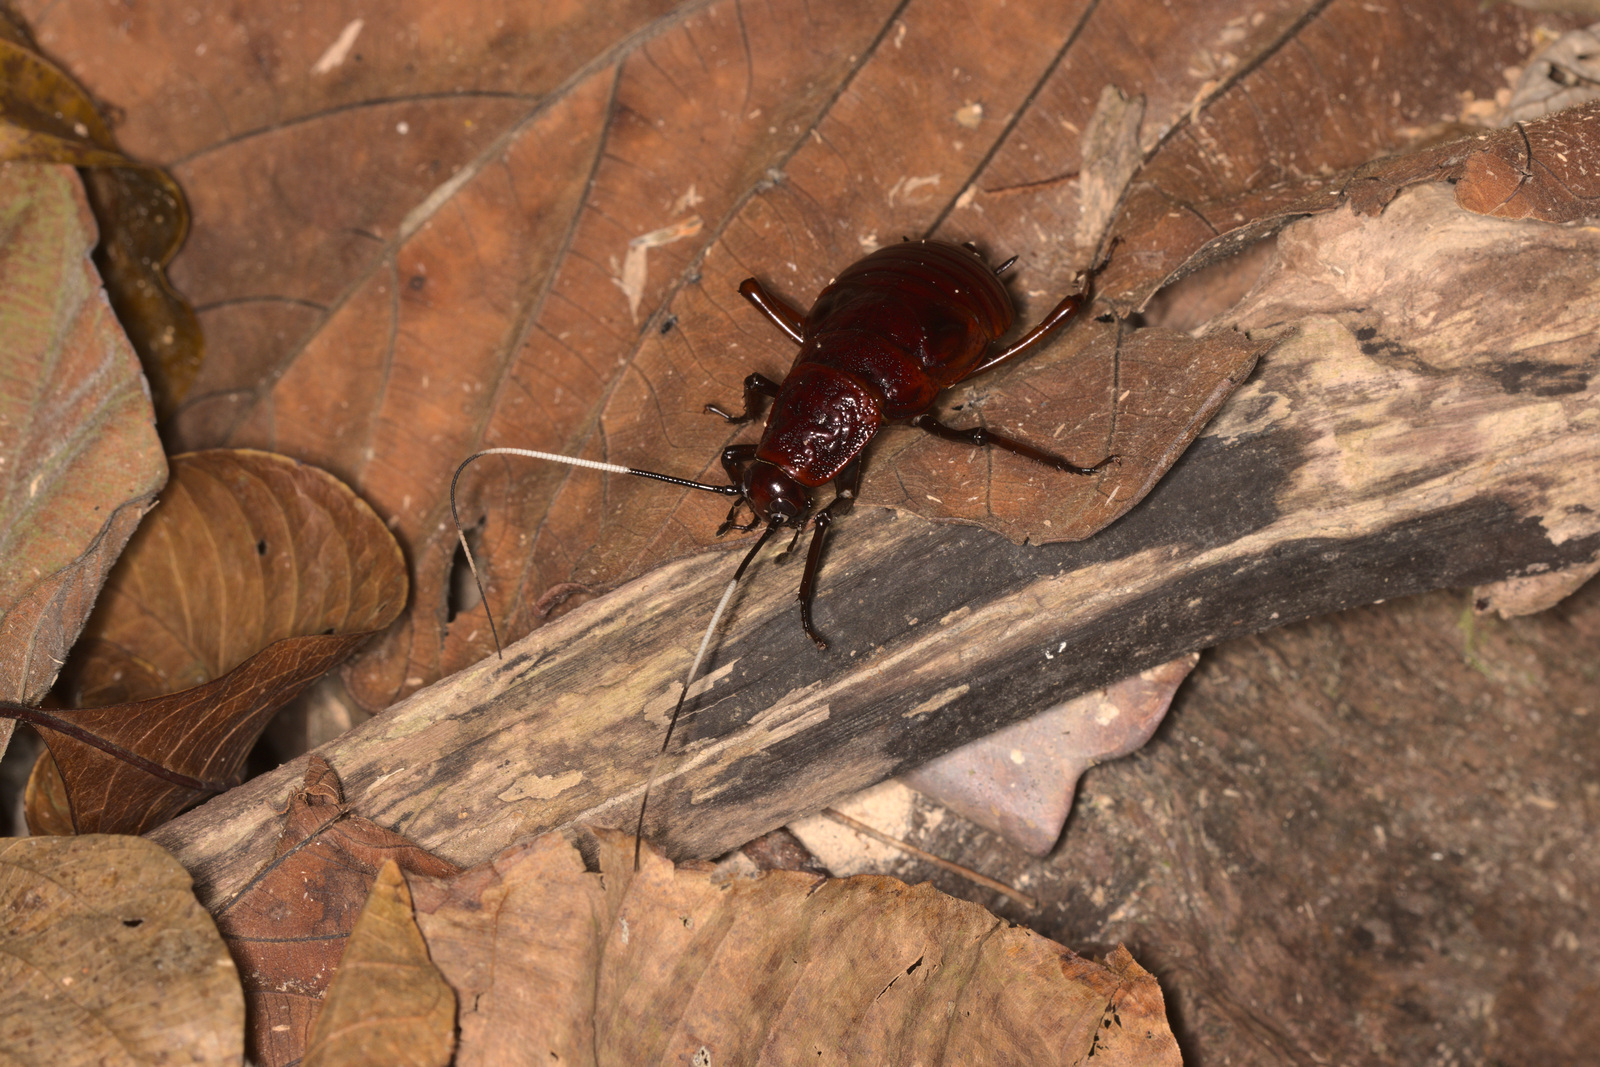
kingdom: Animalia
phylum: Arthropoda
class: Insecta
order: Blattodea
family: Blattidae
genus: Archiblatta
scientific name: Archiblatta hoeveni
